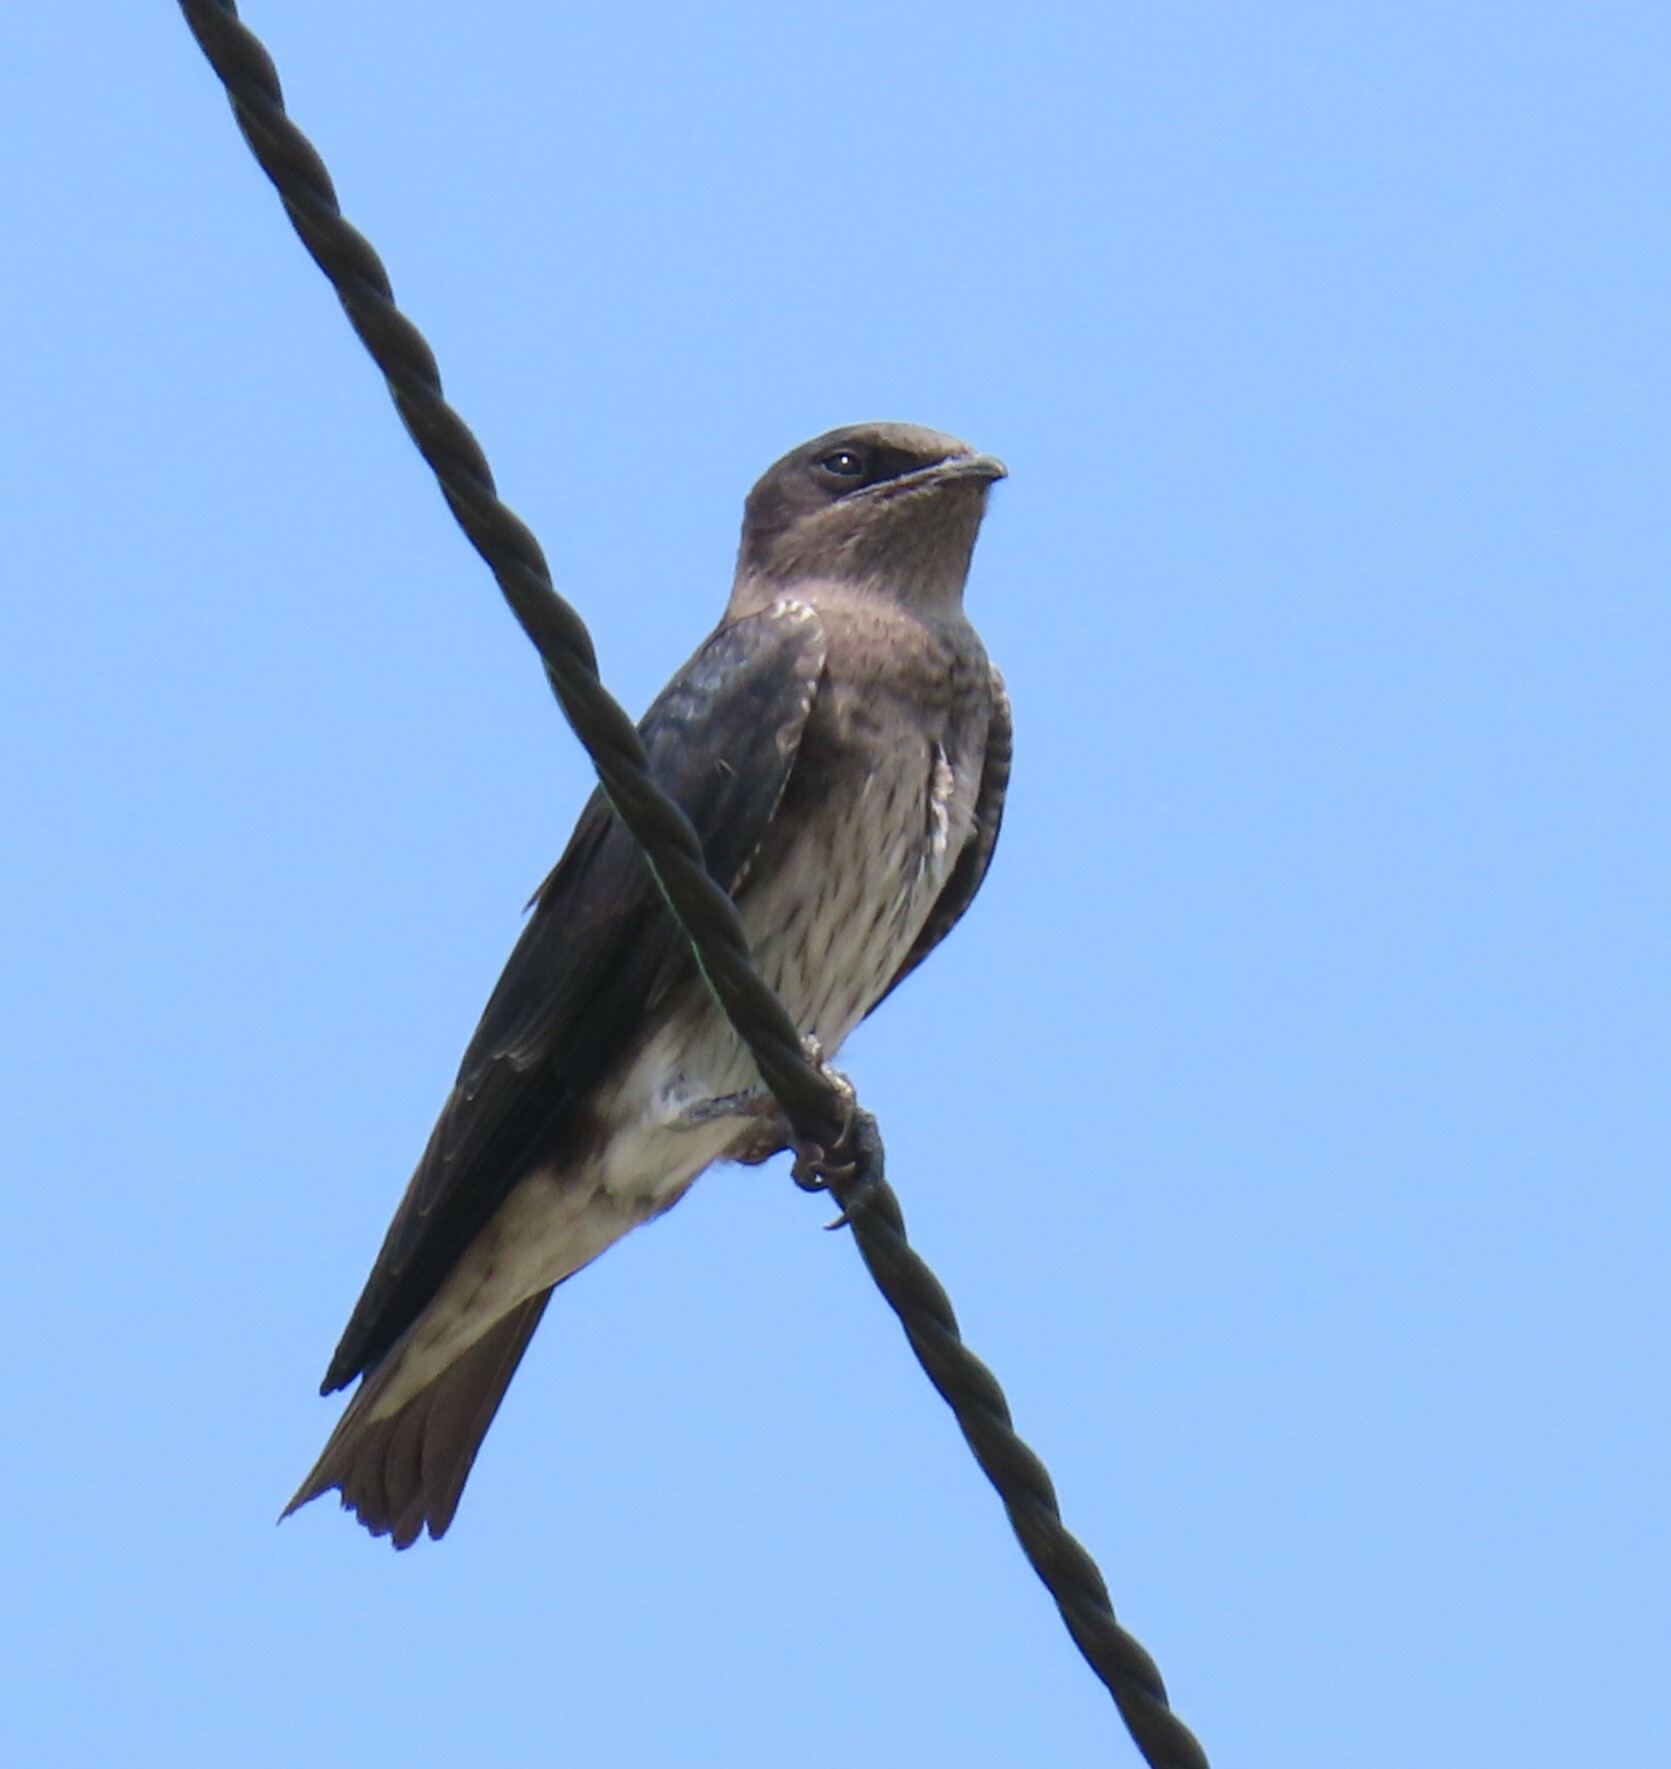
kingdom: Animalia
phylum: Chordata
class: Aves
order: Passeriformes
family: Hirundinidae
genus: Progne
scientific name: Progne subis
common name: Purple martin
